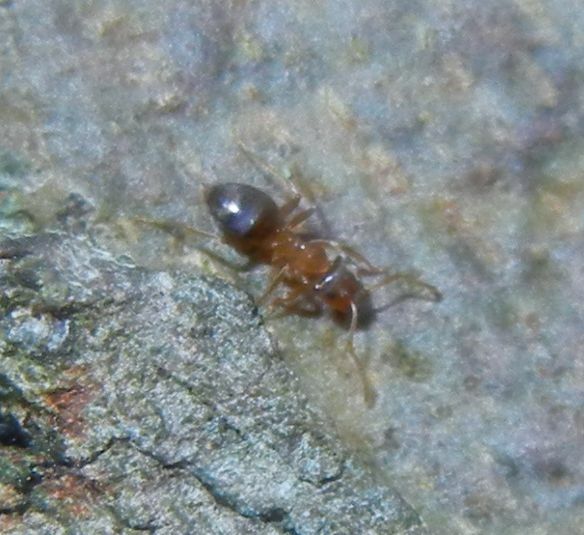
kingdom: Animalia
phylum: Arthropoda
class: Insecta
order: Hymenoptera
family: Formicidae
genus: Lasius
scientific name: Lasius brunneus
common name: Brown ant
